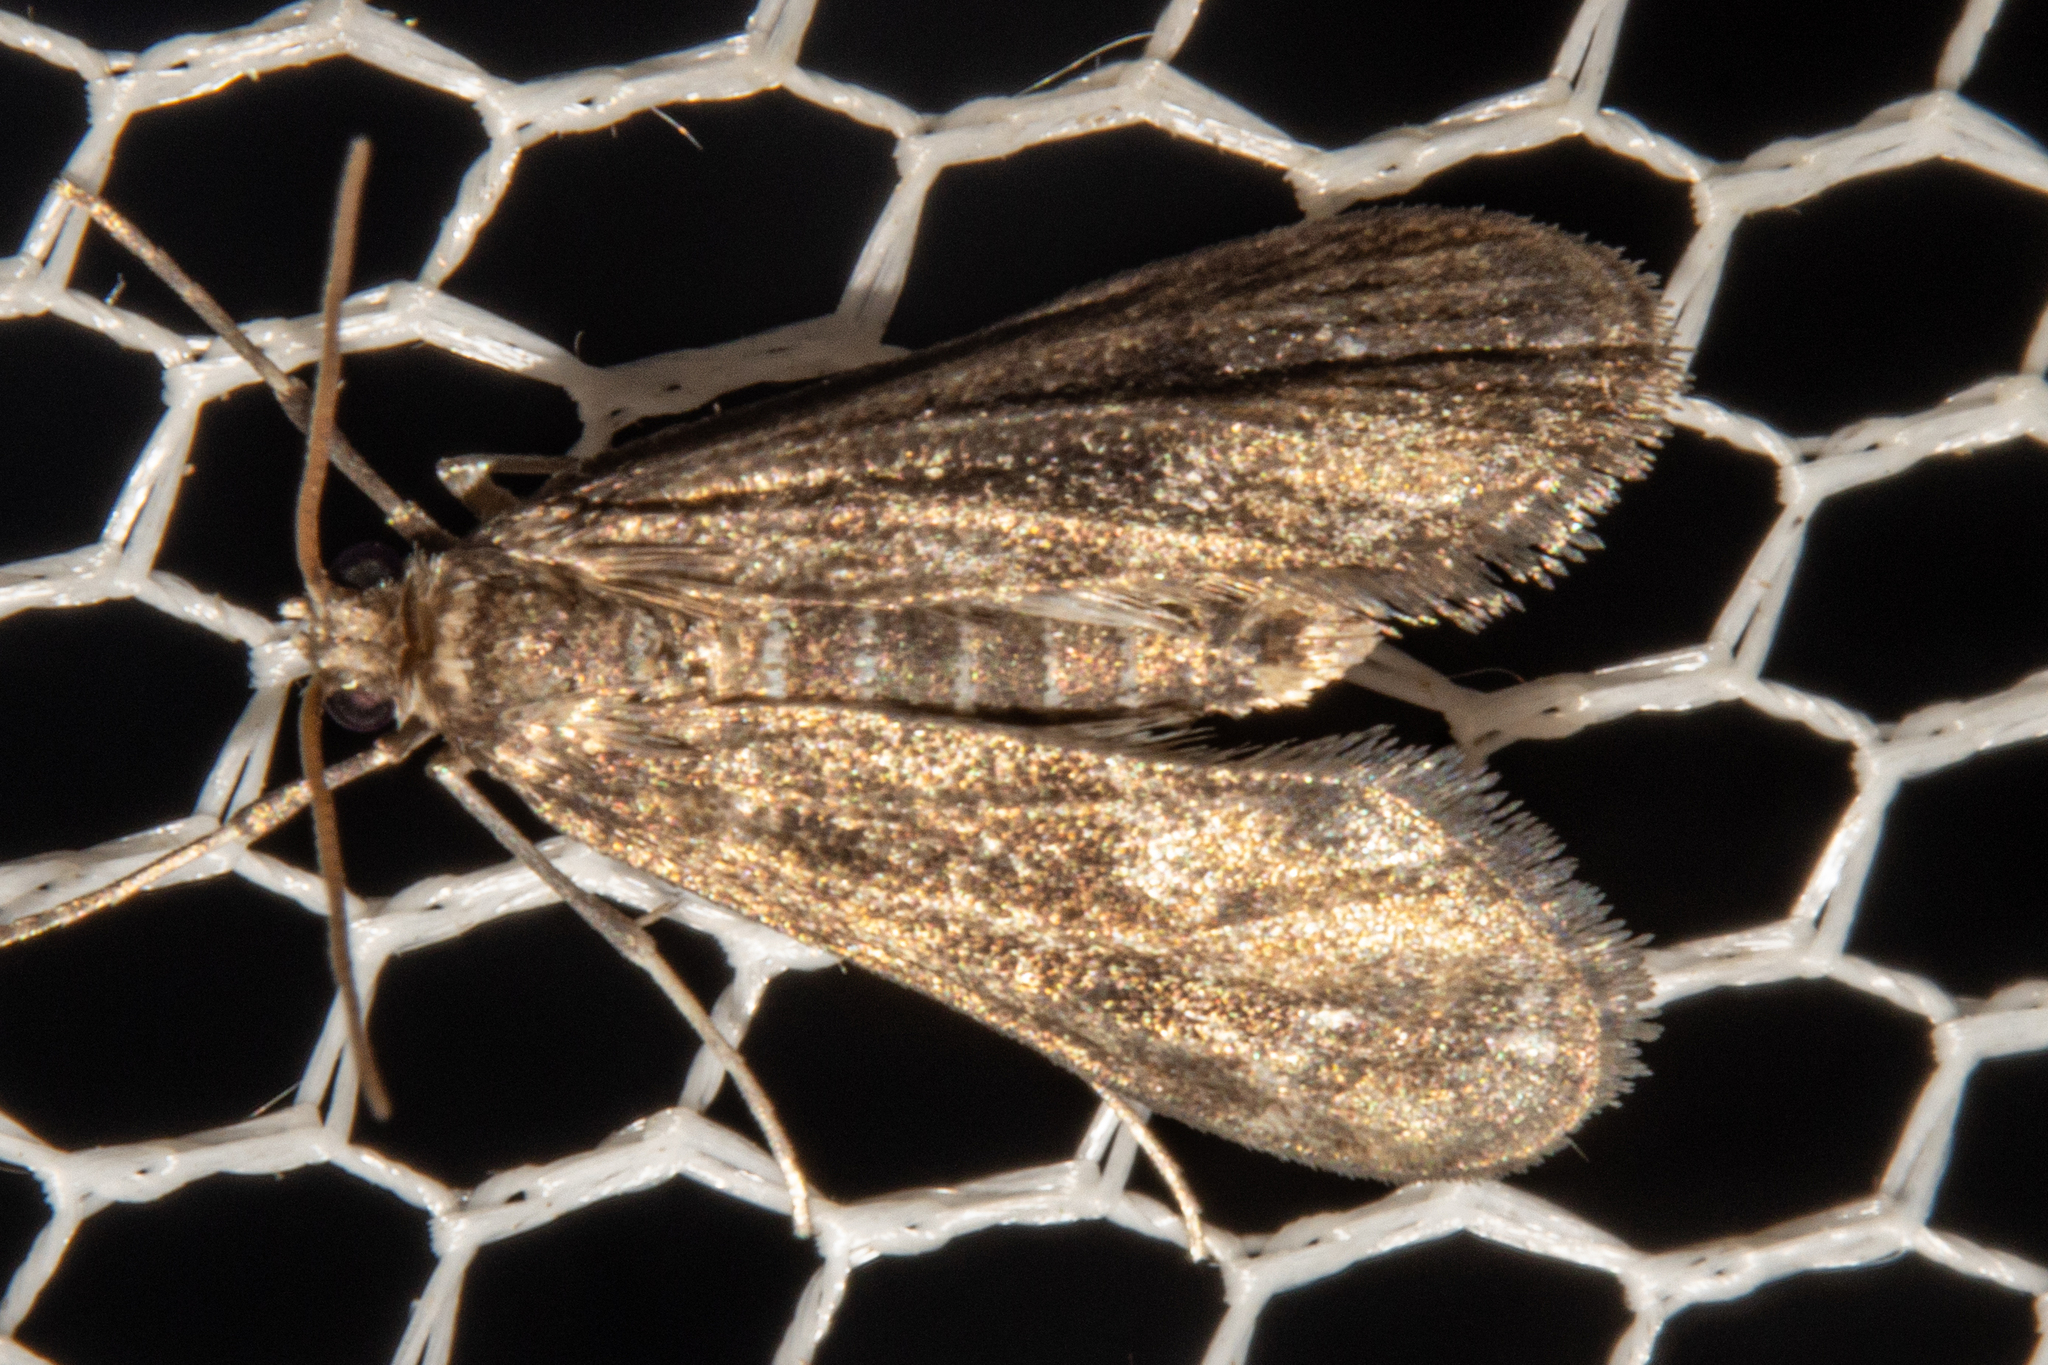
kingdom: Animalia
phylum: Arthropoda
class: Insecta
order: Lepidoptera
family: Crambidae
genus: Hygraula
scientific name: Hygraula nitens
